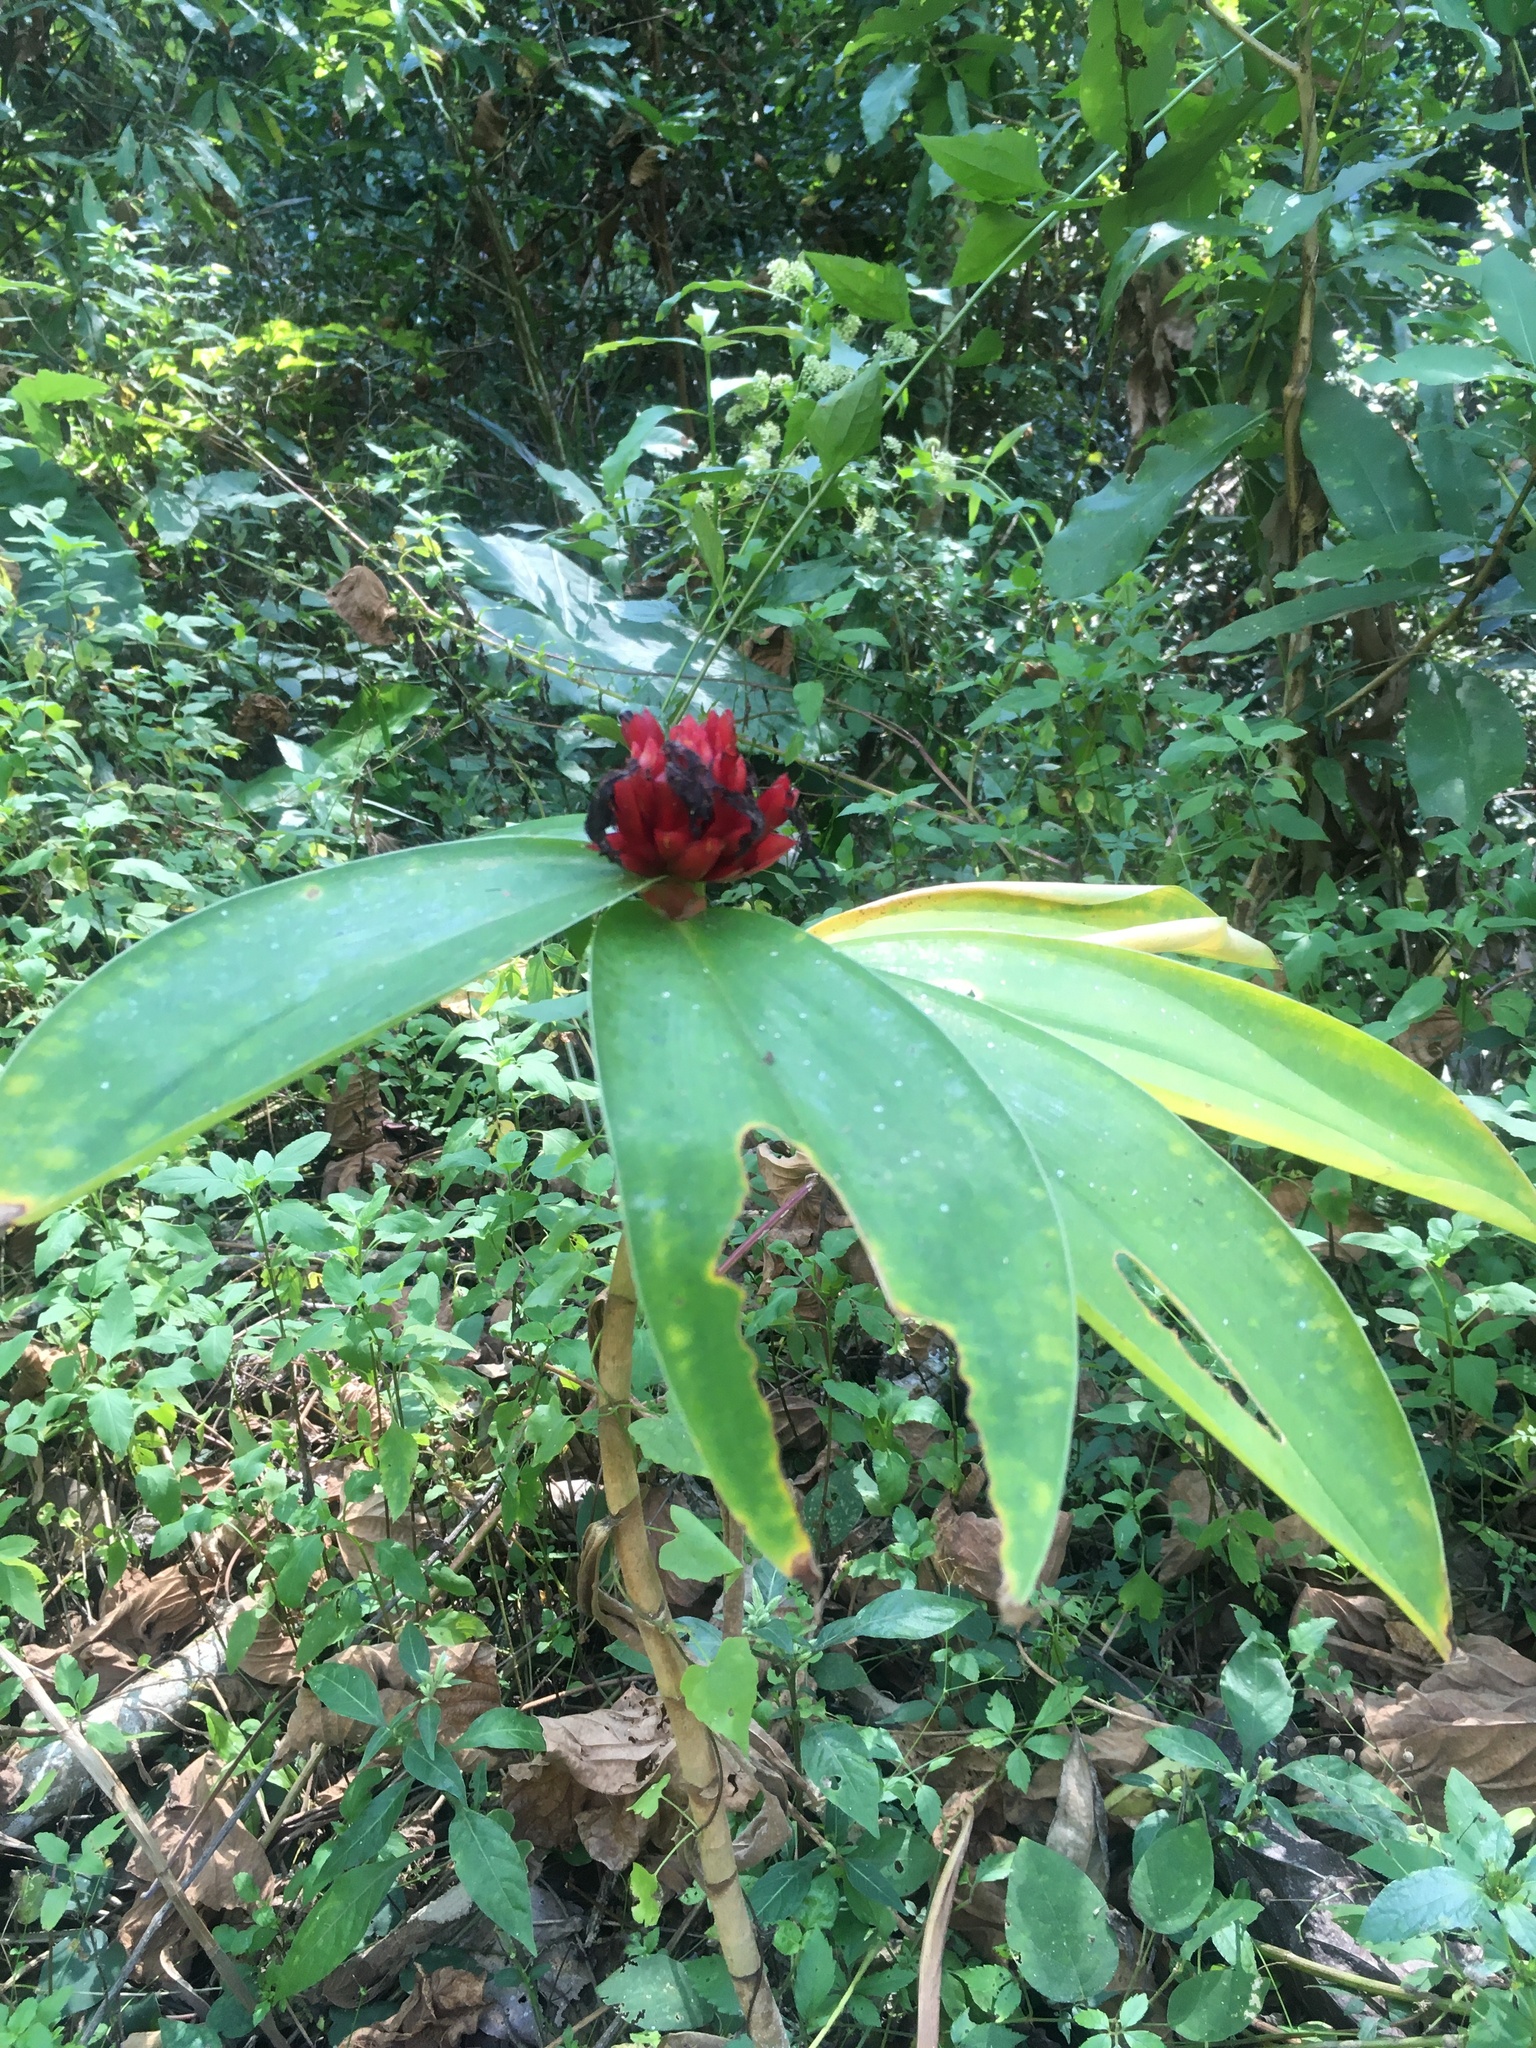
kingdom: Plantae
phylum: Tracheophyta
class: Liliopsida
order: Zingiberales
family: Costaceae
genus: Hellenia
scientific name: Hellenia speciosa
